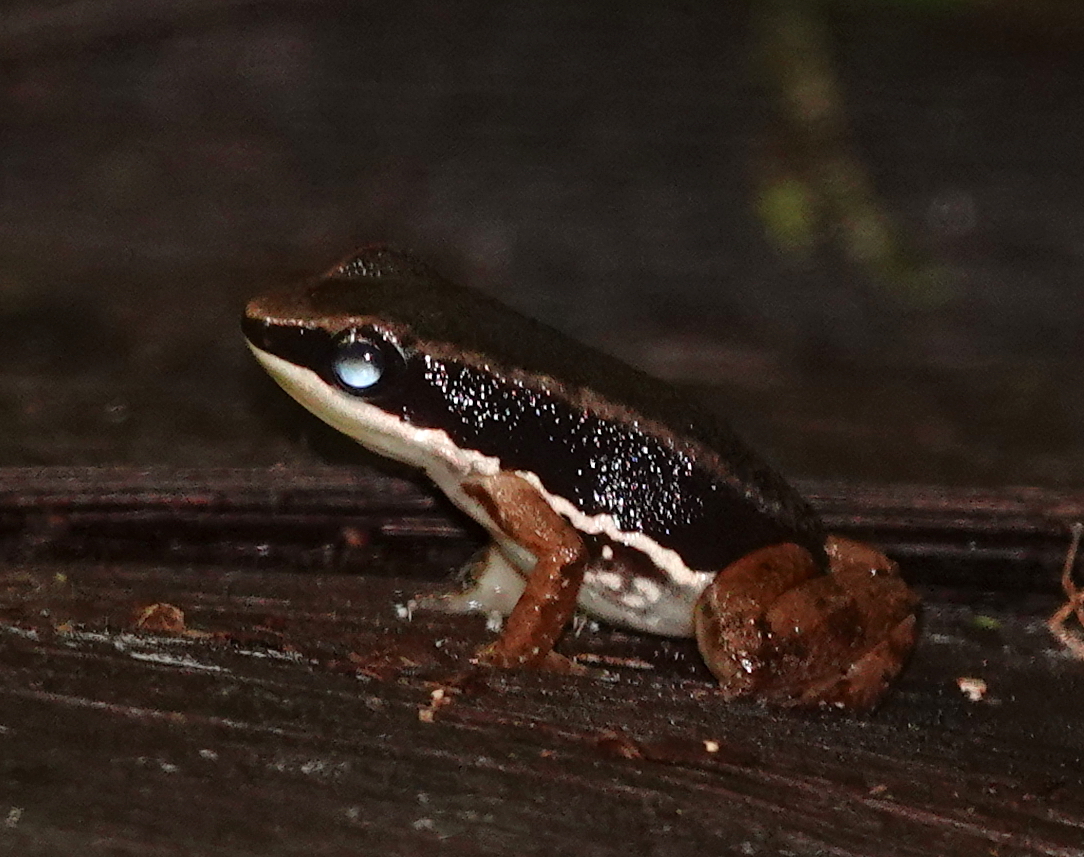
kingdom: Animalia
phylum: Chordata
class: Amphibia
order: Anura
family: Aromobatidae
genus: Allobates
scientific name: Allobates talamancae
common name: Talamanca rocket frog
